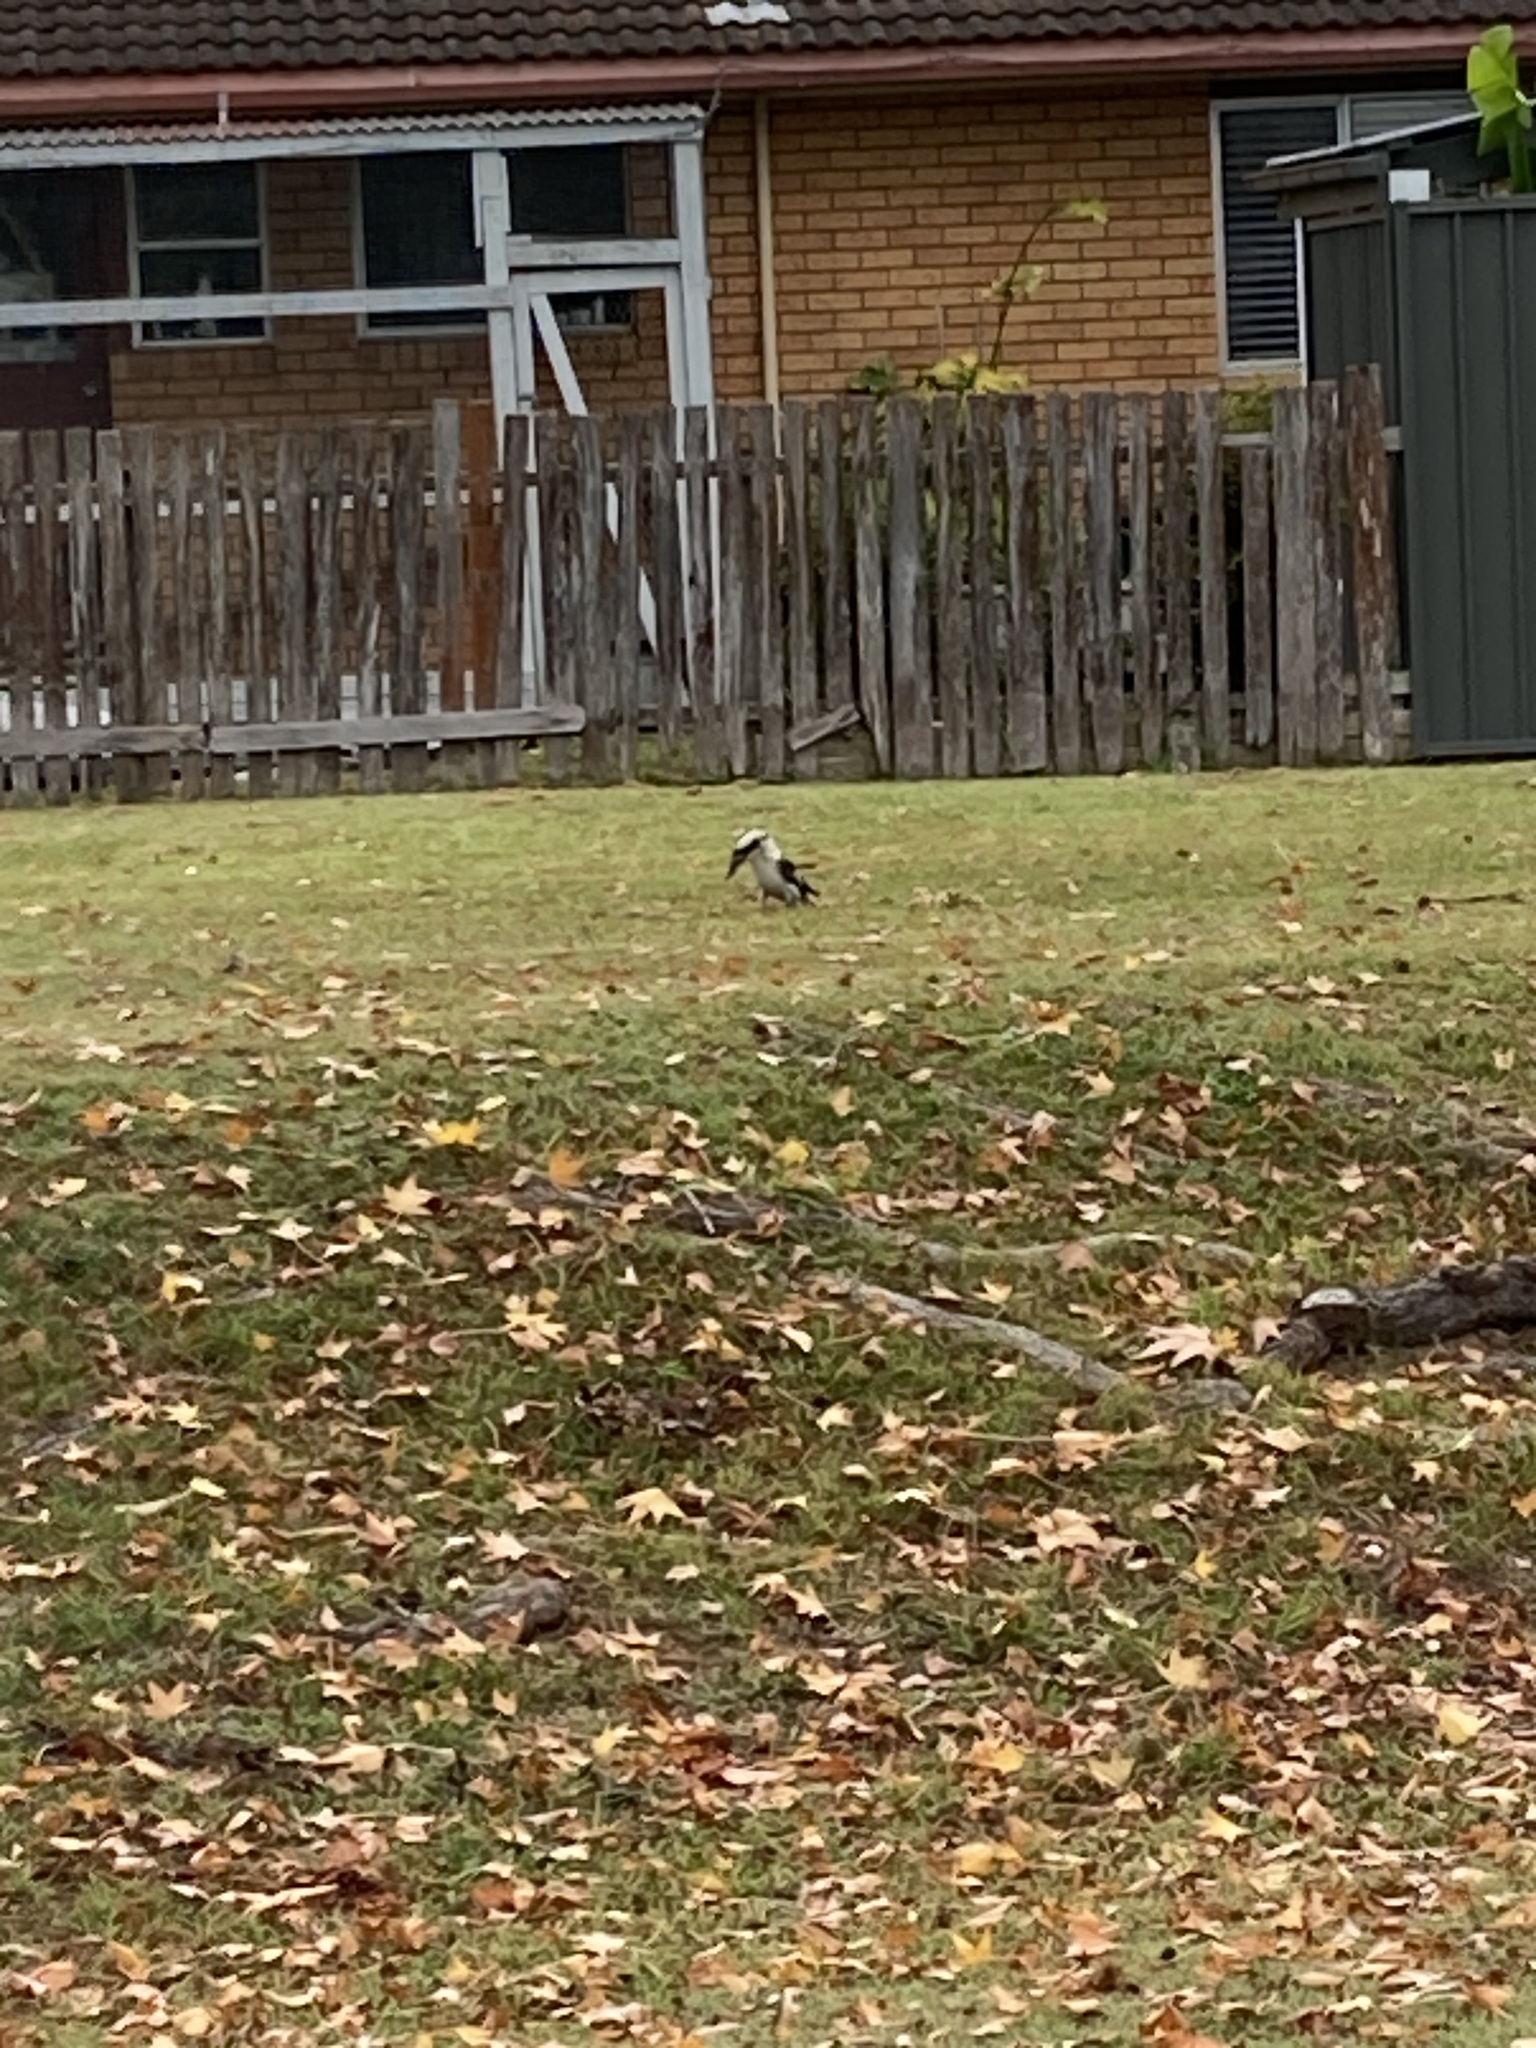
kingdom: Animalia
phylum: Chordata
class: Aves
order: Coraciiformes
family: Alcedinidae
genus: Dacelo
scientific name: Dacelo novaeguineae
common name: Laughing kookaburra
